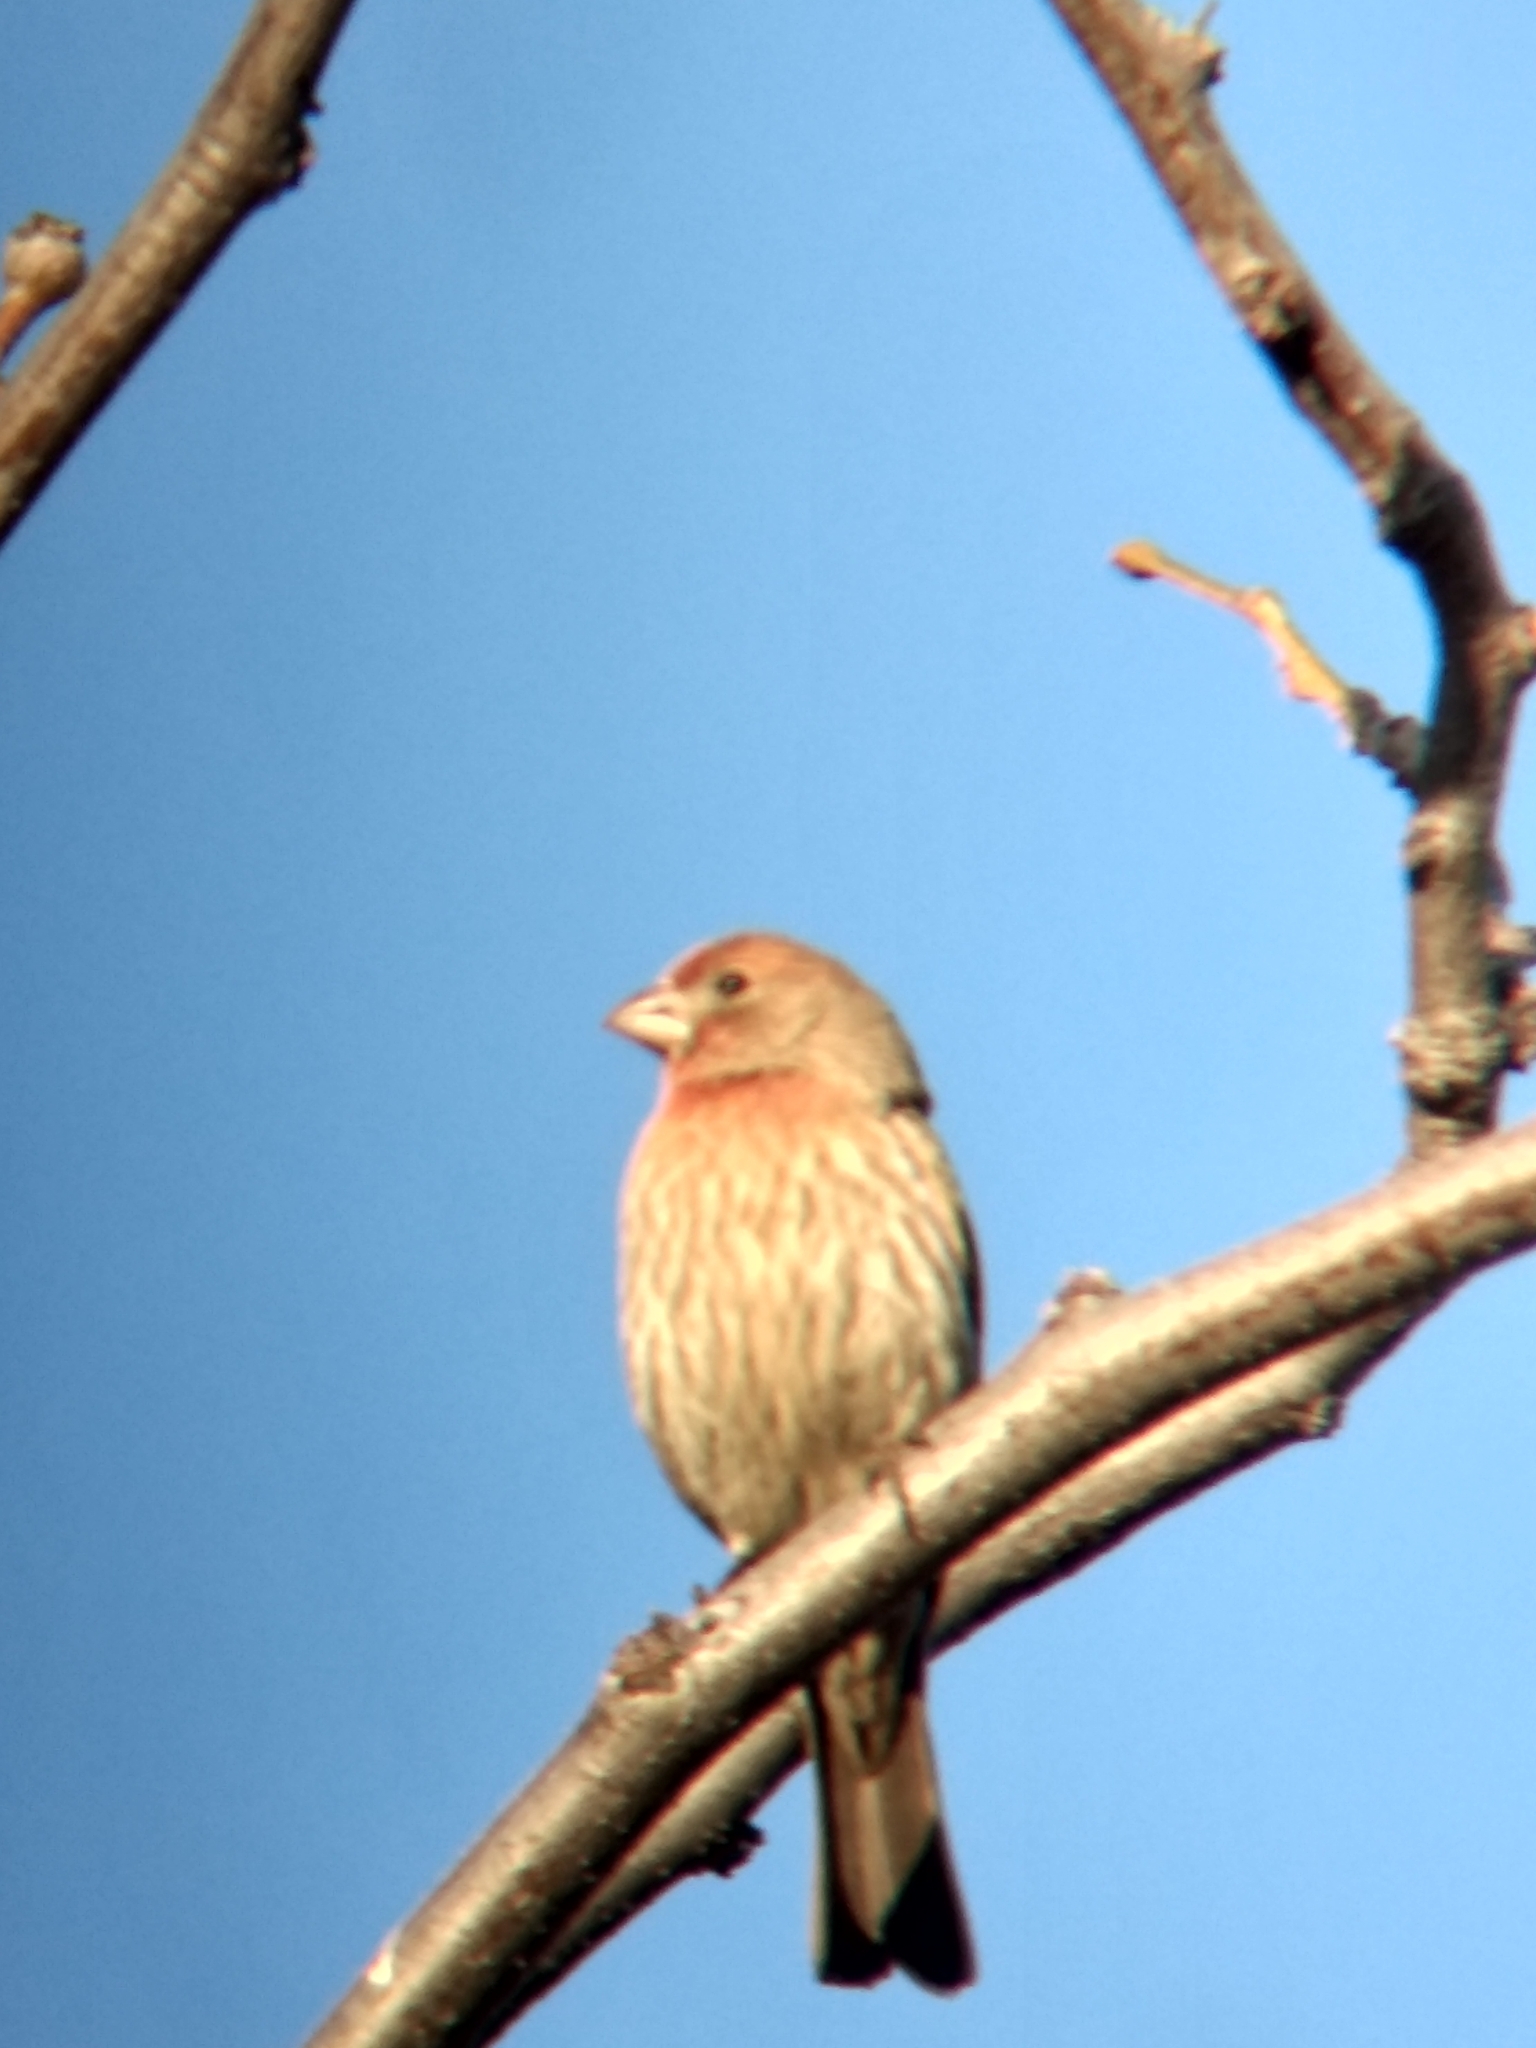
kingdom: Animalia
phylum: Chordata
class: Aves
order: Passeriformes
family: Fringillidae
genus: Haemorhous
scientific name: Haemorhous mexicanus
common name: House finch
